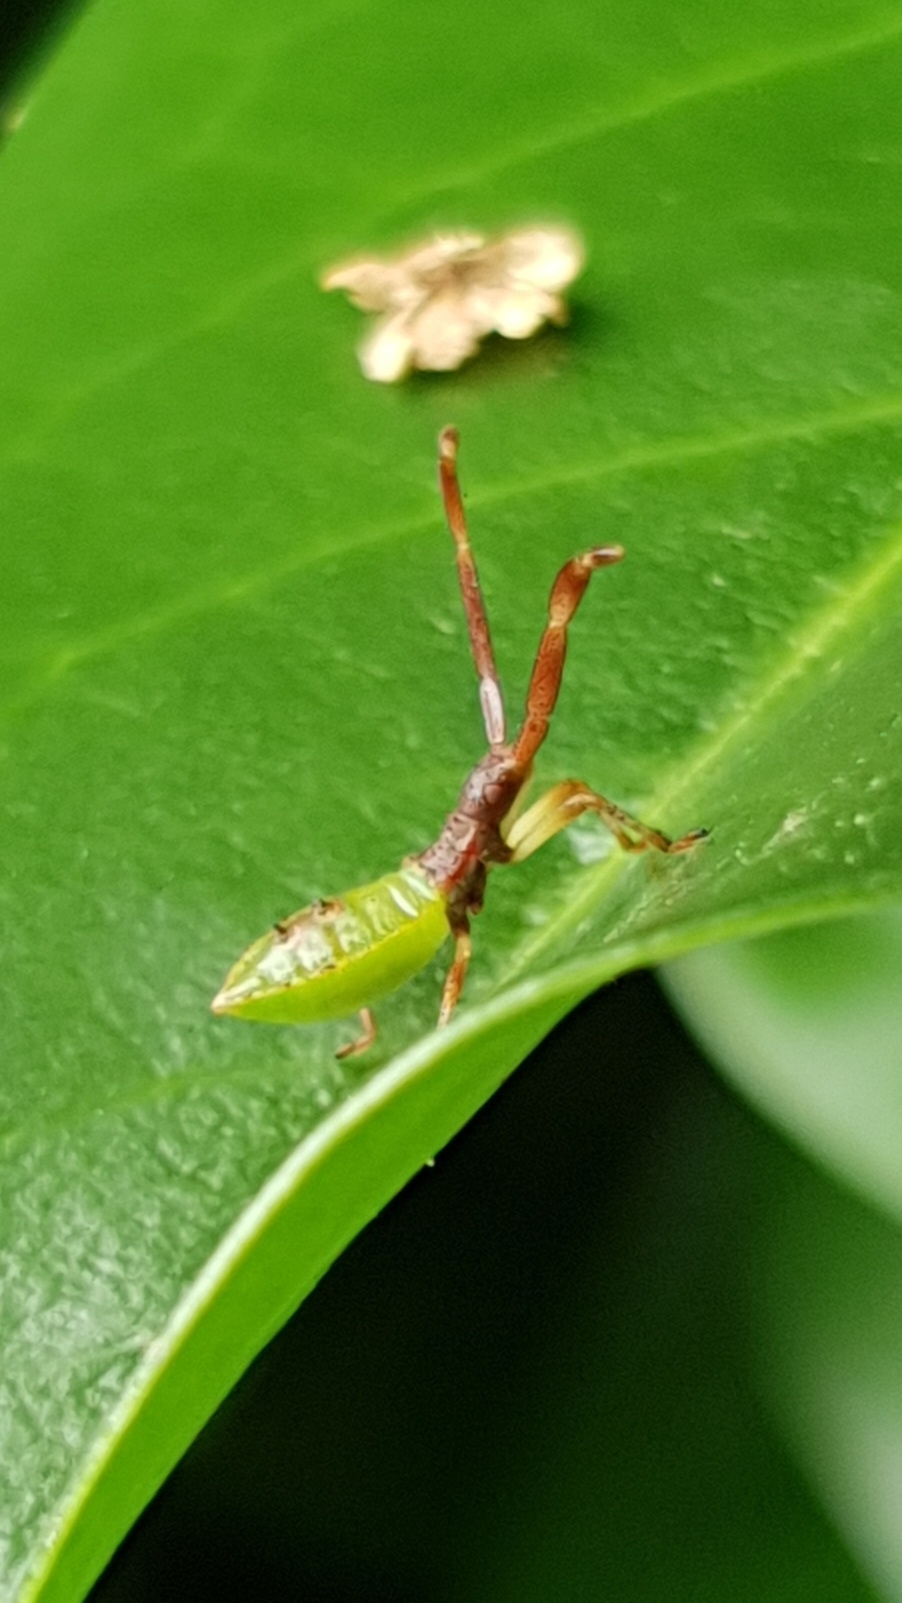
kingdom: Animalia
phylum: Arthropoda
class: Insecta
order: Hemiptera
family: Coreidae
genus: Gonocerus
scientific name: Gonocerus acuteangulatus
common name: Box bug
